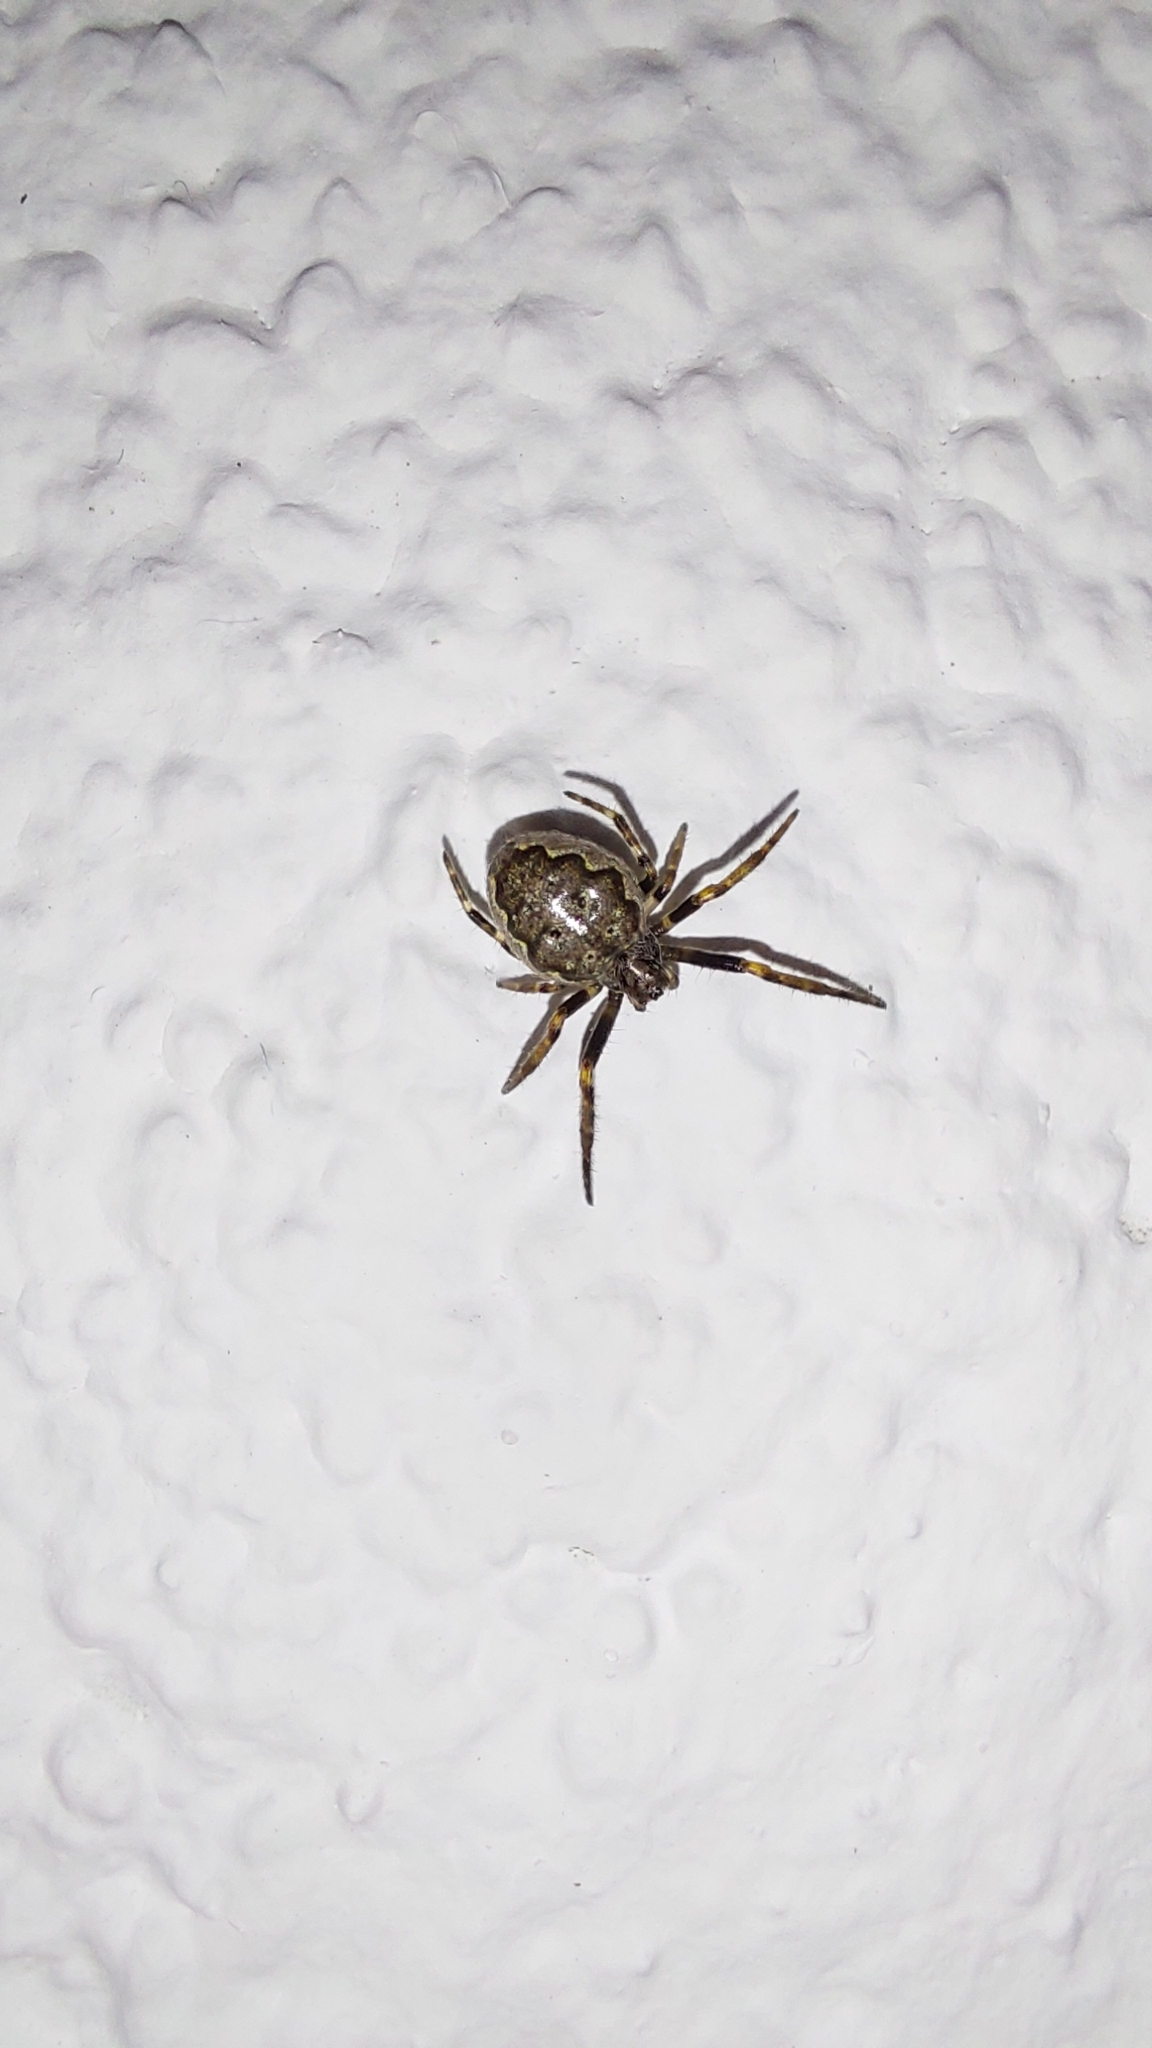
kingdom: Animalia
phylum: Arthropoda
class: Arachnida
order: Araneae
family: Araneidae
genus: Nuctenea
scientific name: Nuctenea umbratica
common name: Toad spider
